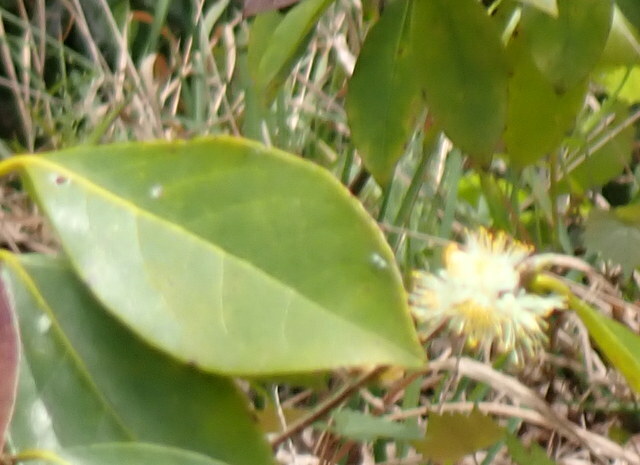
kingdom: Plantae
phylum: Tracheophyta
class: Magnoliopsida
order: Ericales
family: Symplocaceae
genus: Symplocos
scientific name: Symplocos tinctoria
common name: Horse-sugar
